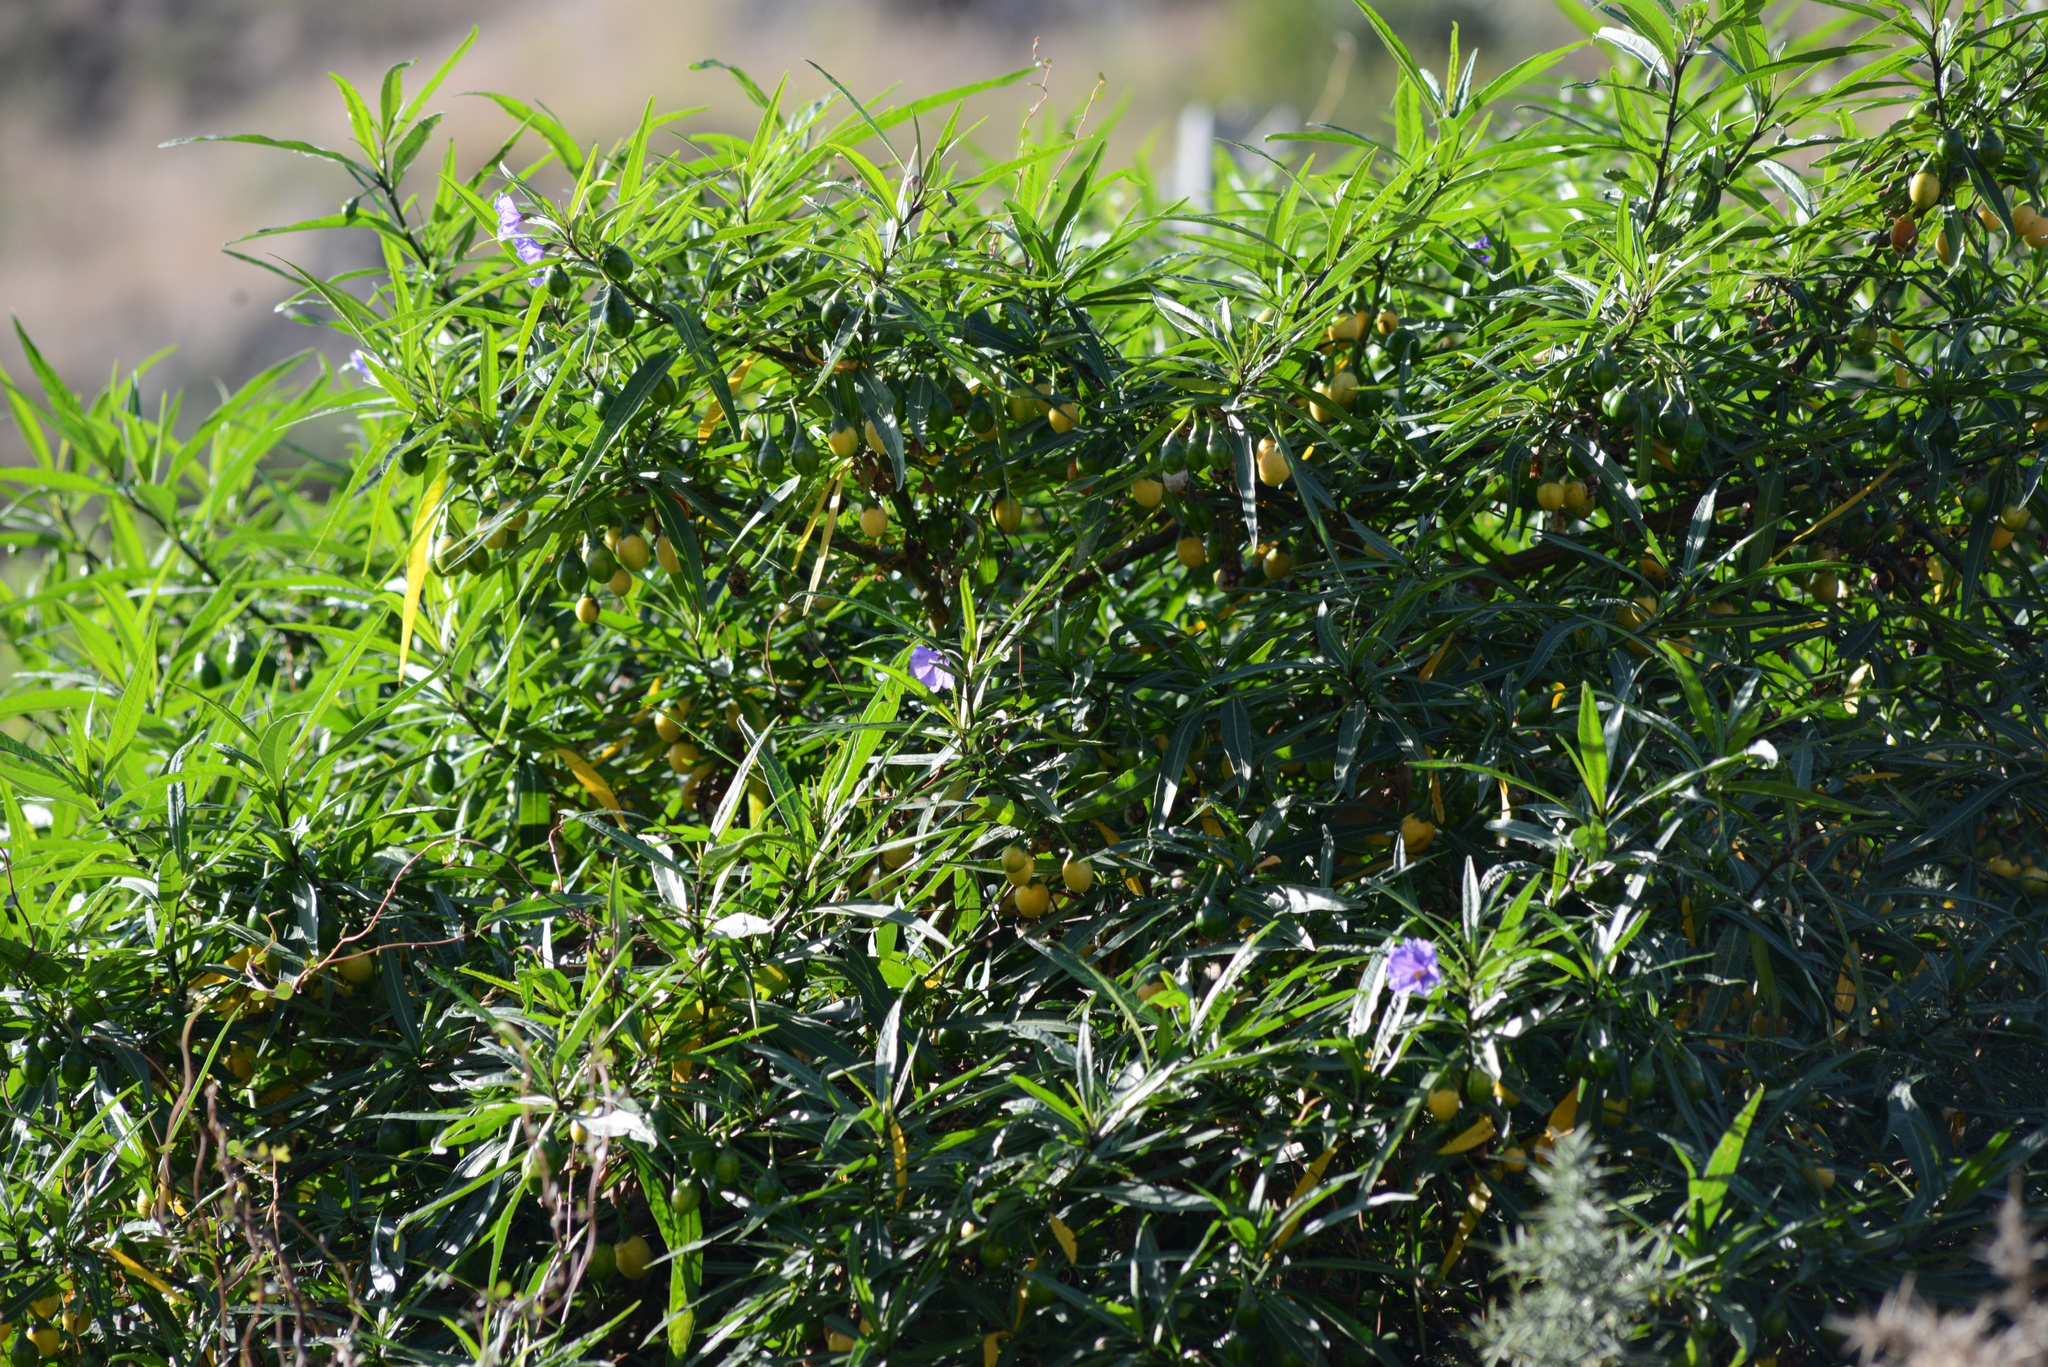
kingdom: Plantae
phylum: Tracheophyta
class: Magnoliopsida
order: Solanales
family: Solanaceae
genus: Solanum
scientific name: Solanum laciniatum
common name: Kangaroo-apple
